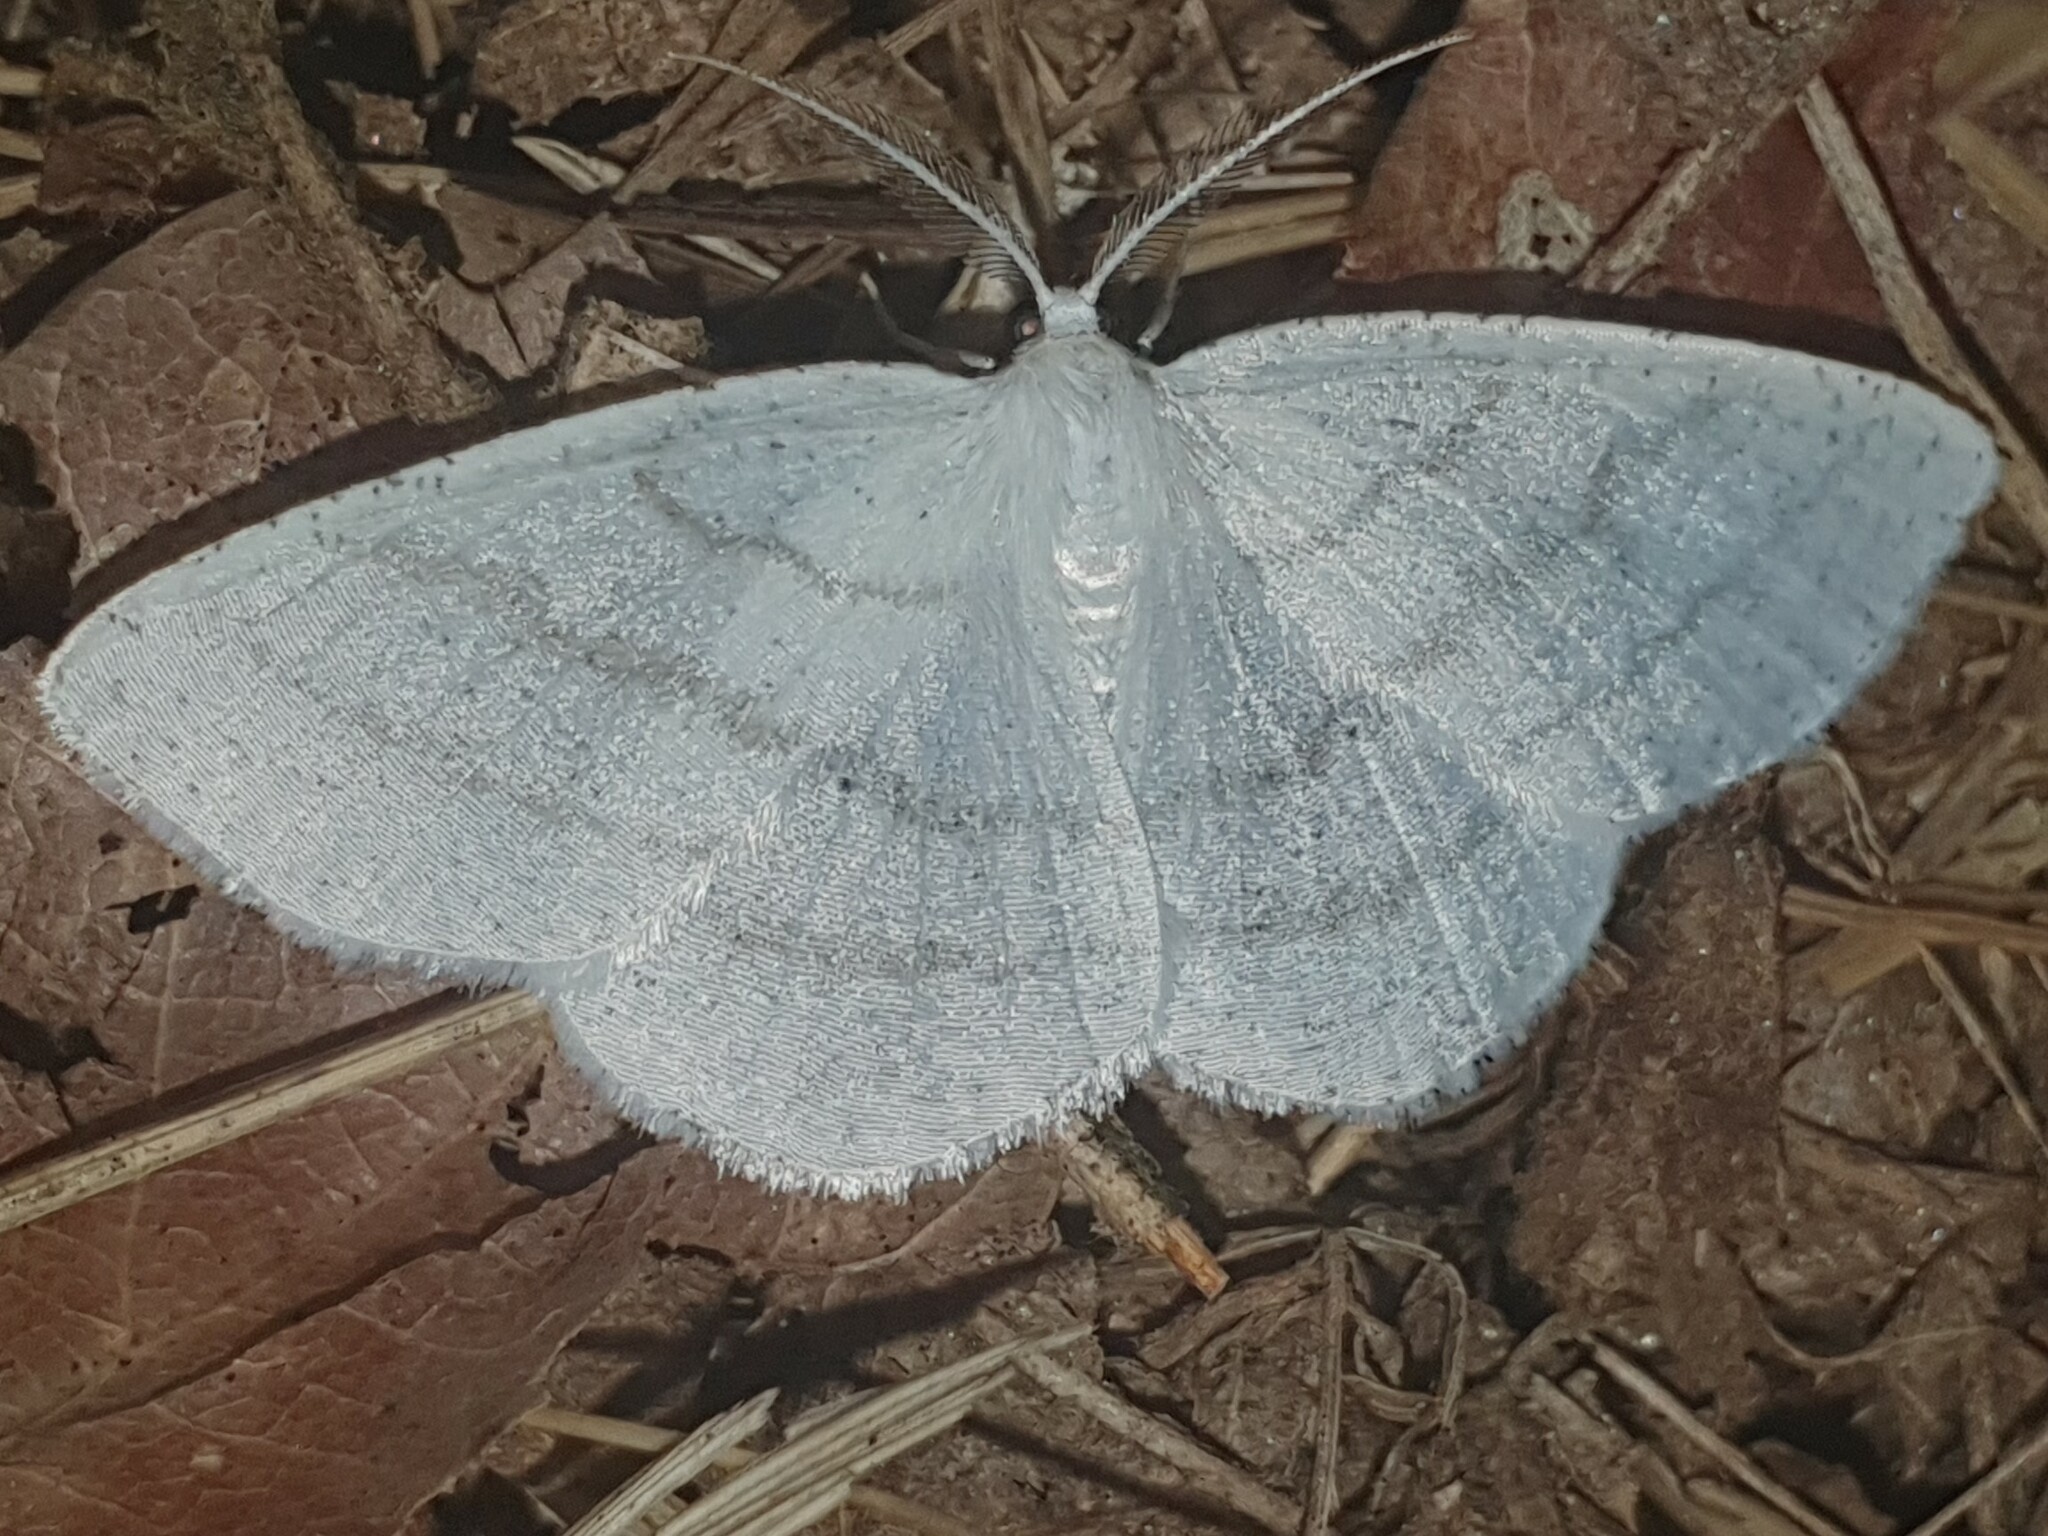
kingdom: Animalia
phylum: Arthropoda
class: Insecta
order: Lepidoptera
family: Geometridae
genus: Cabera
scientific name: Cabera pusaria
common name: Common white wave
